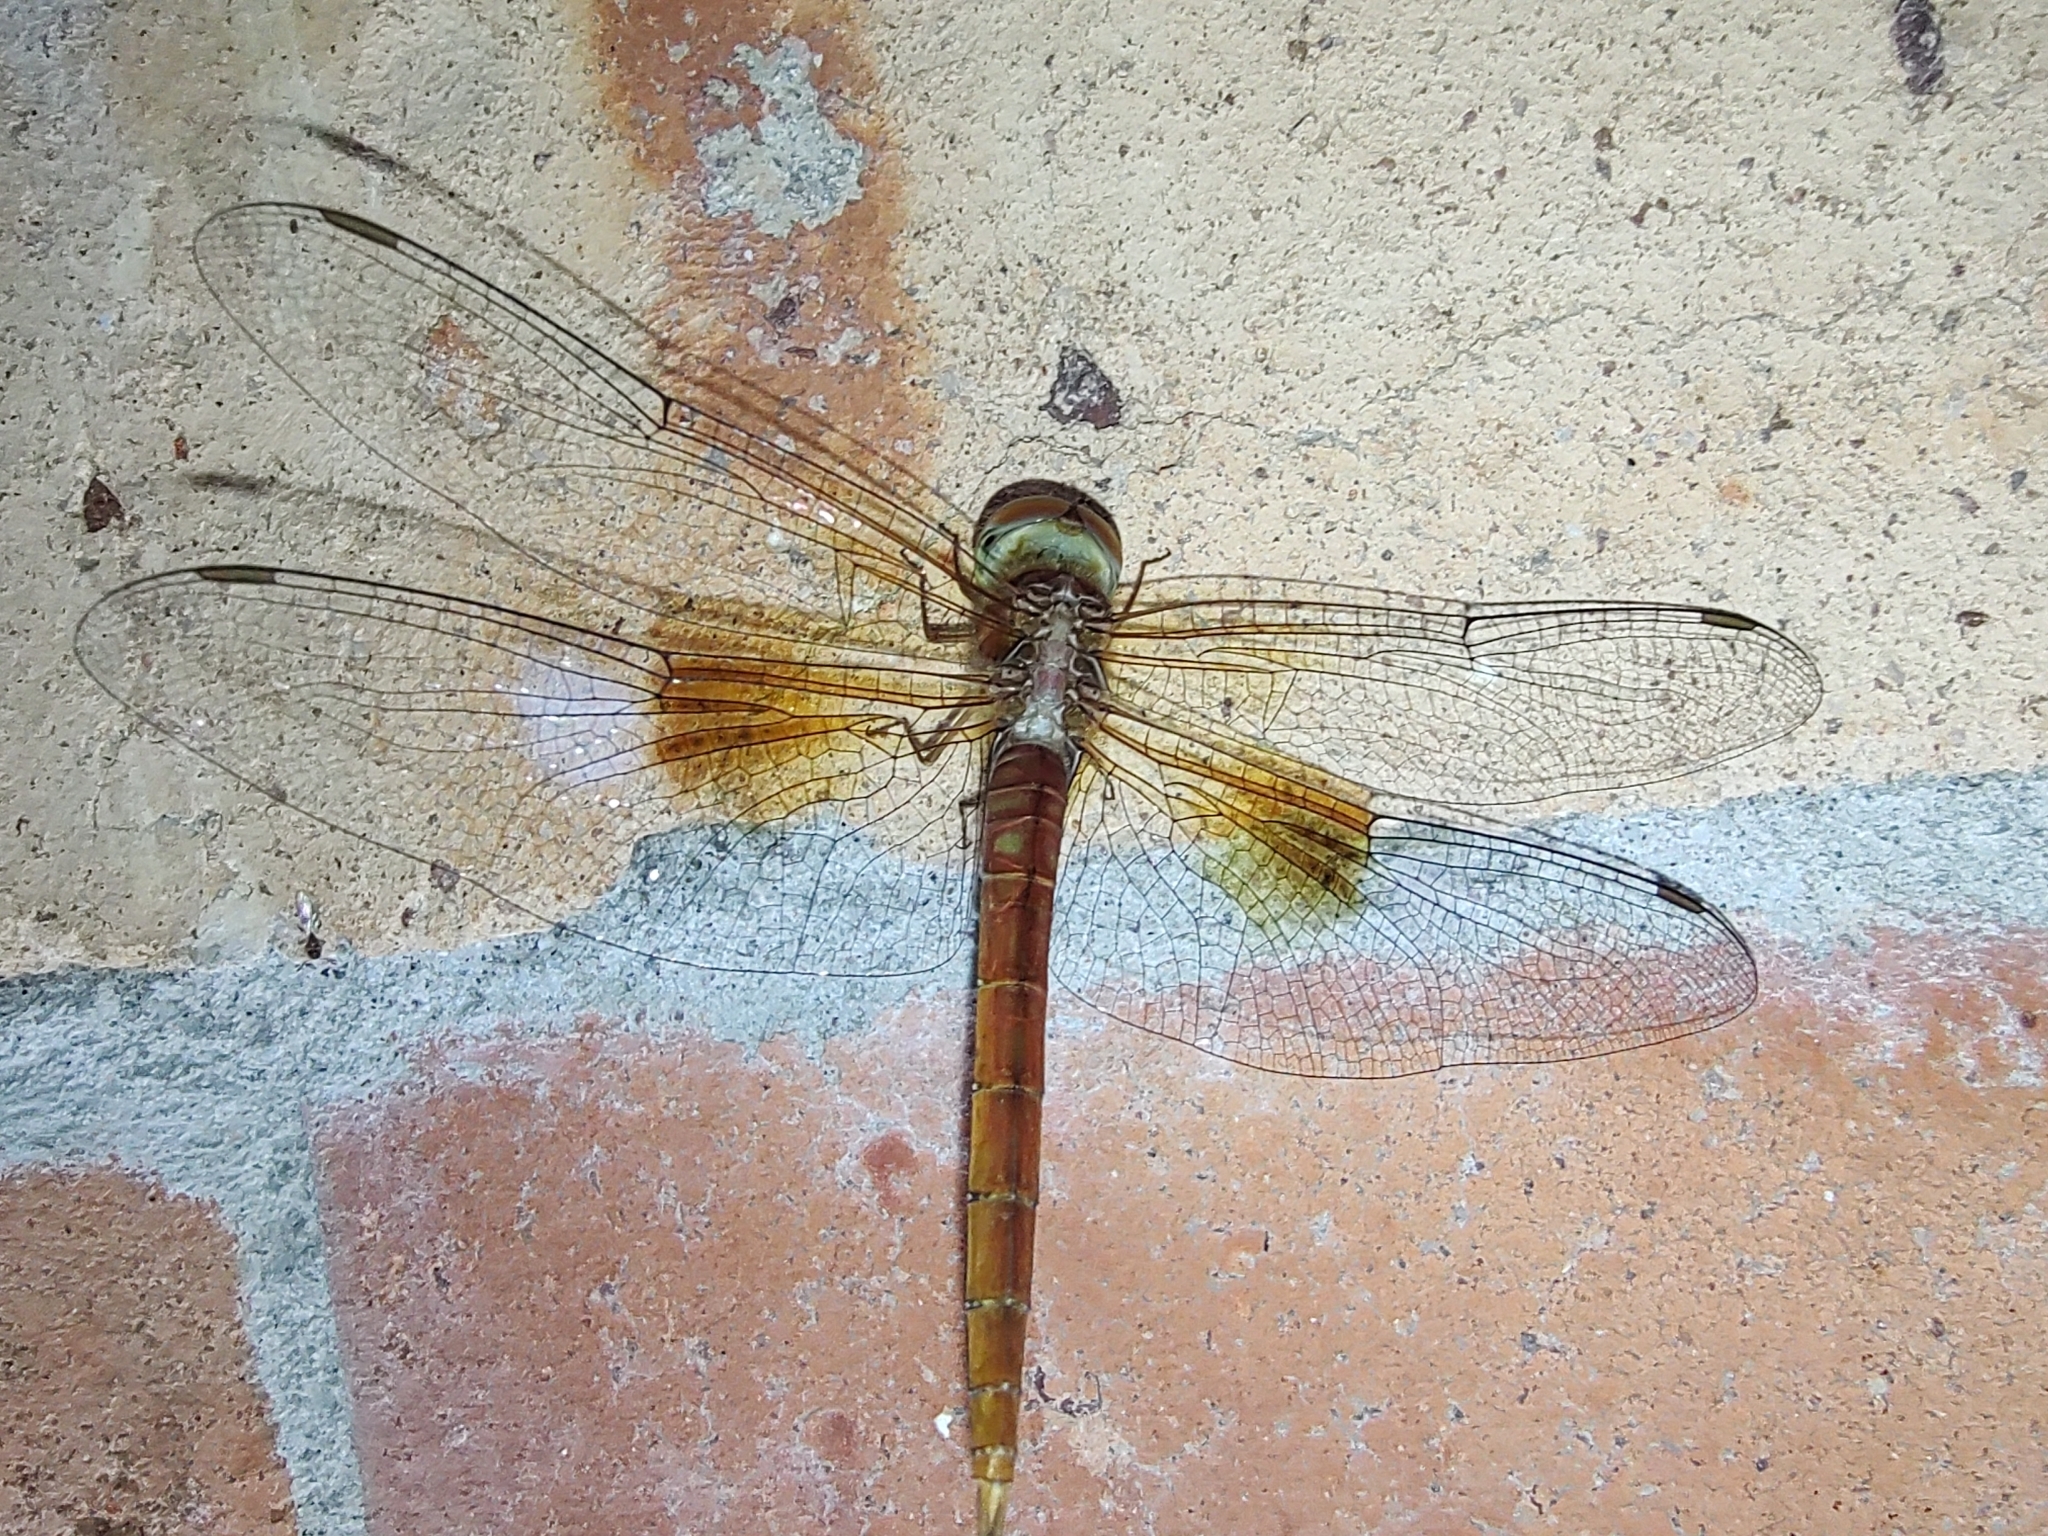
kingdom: Animalia
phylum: Arthropoda
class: Insecta
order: Odonata
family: Libellulidae
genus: Tholymis
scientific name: Tholymis tillarga
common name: Coral-tailed cloud wing
